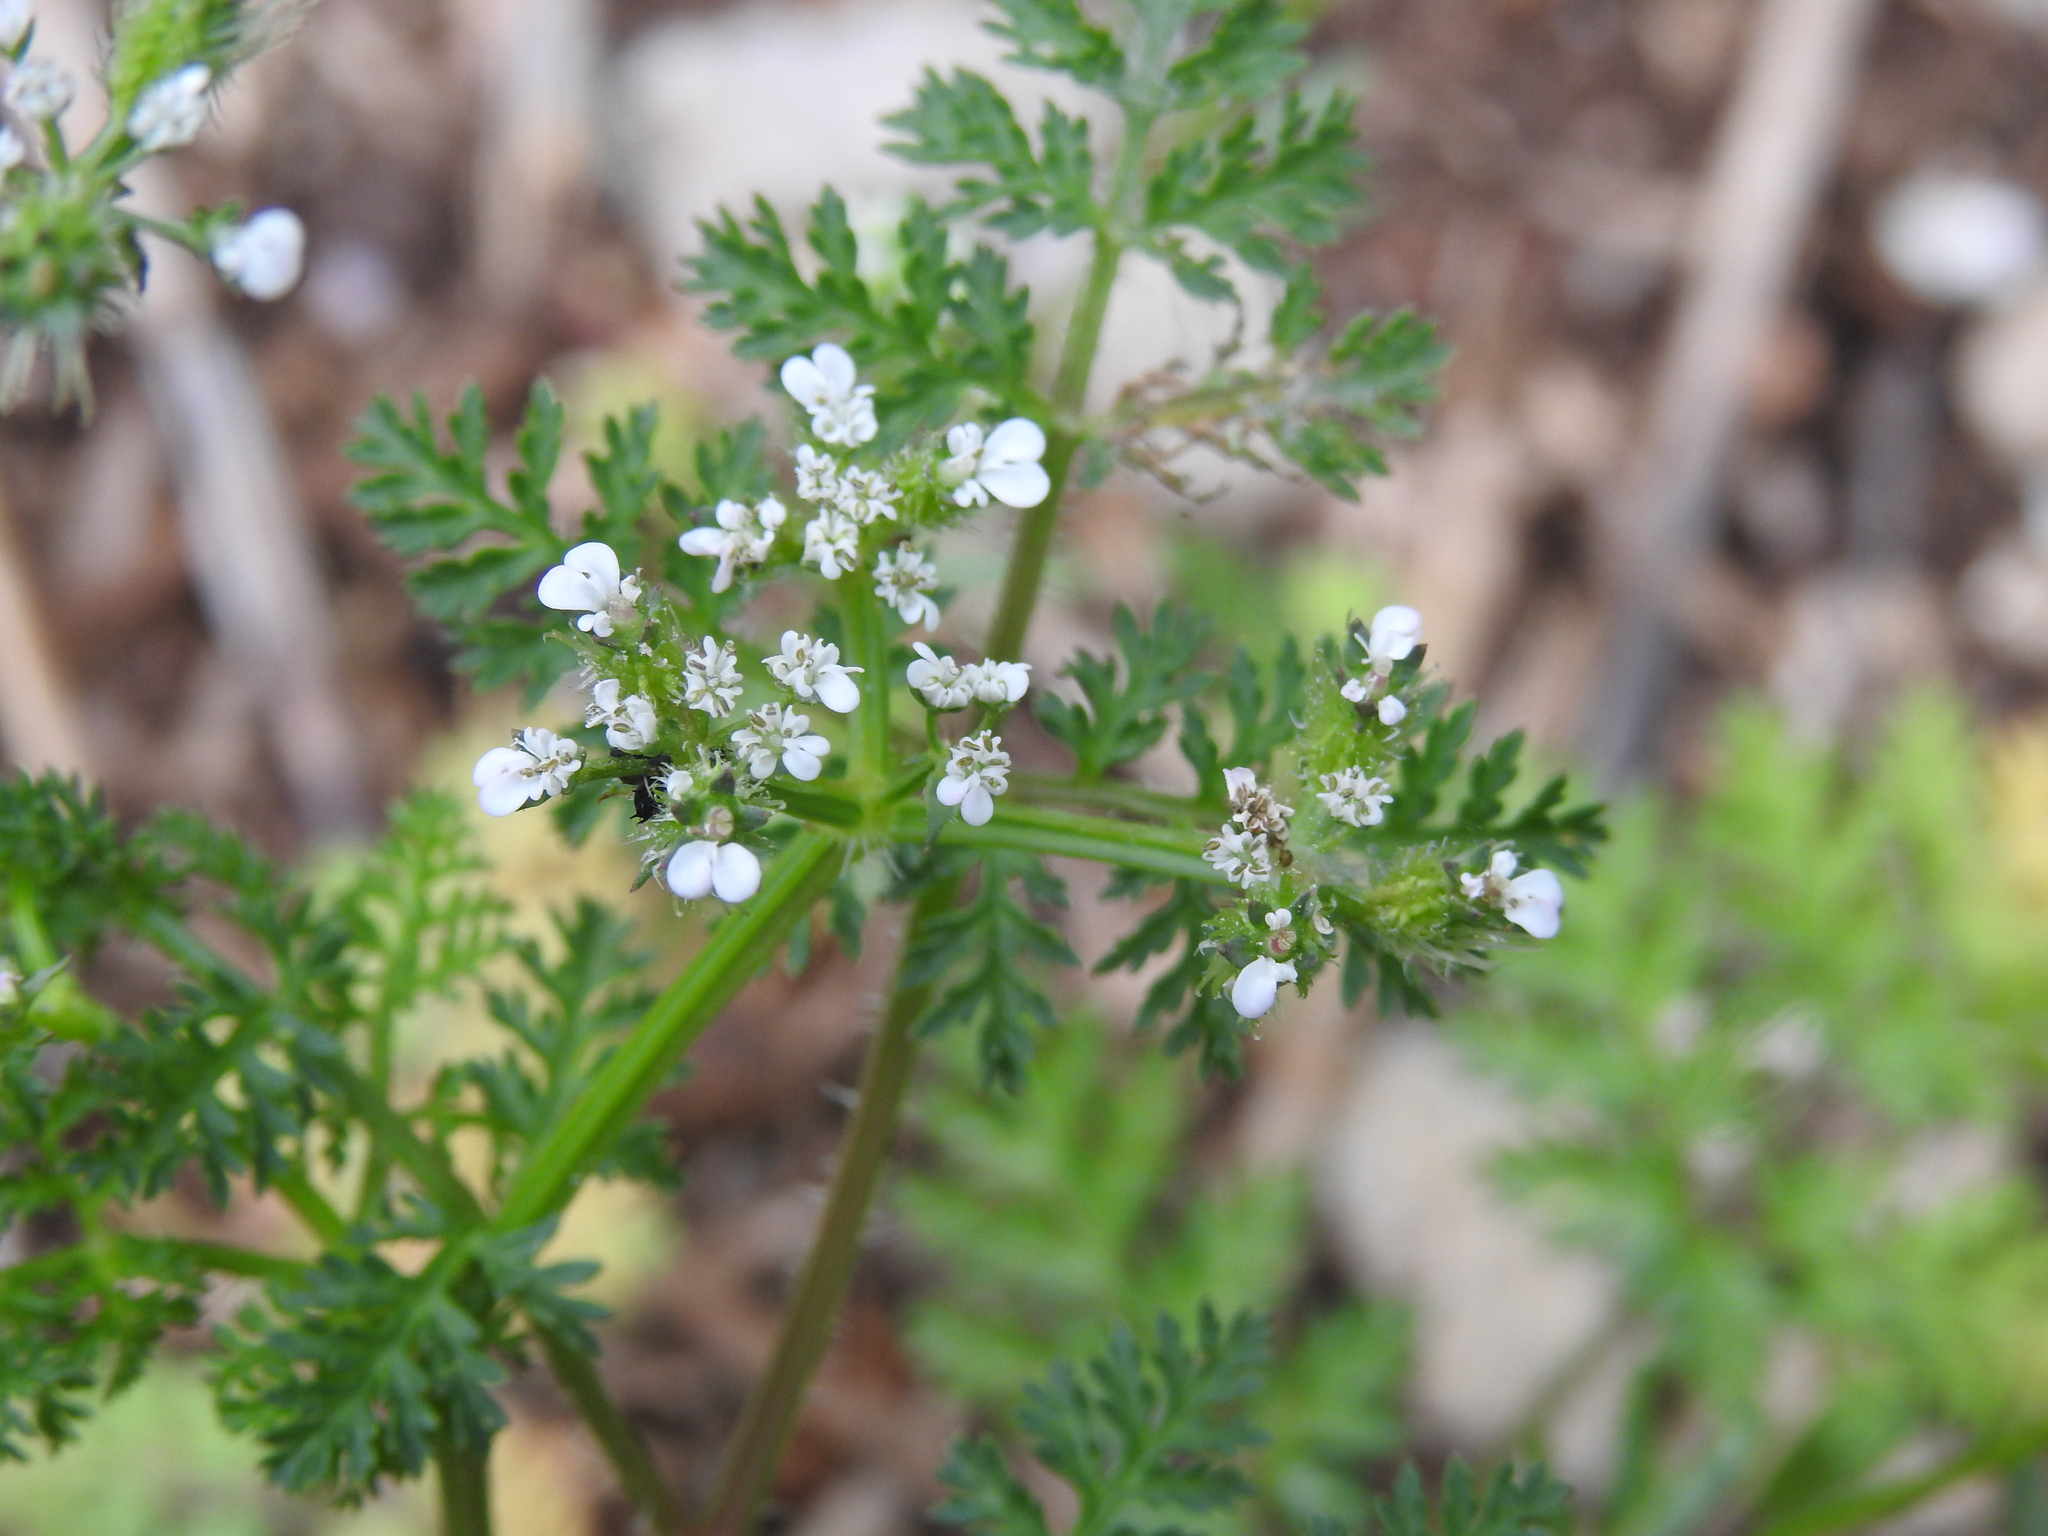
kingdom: Plantae
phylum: Tracheophyta
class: Magnoliopsida
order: Apiales
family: Apiaceae
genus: Caucalis
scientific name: Caucalis platycarpos
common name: Small bur-parsley
